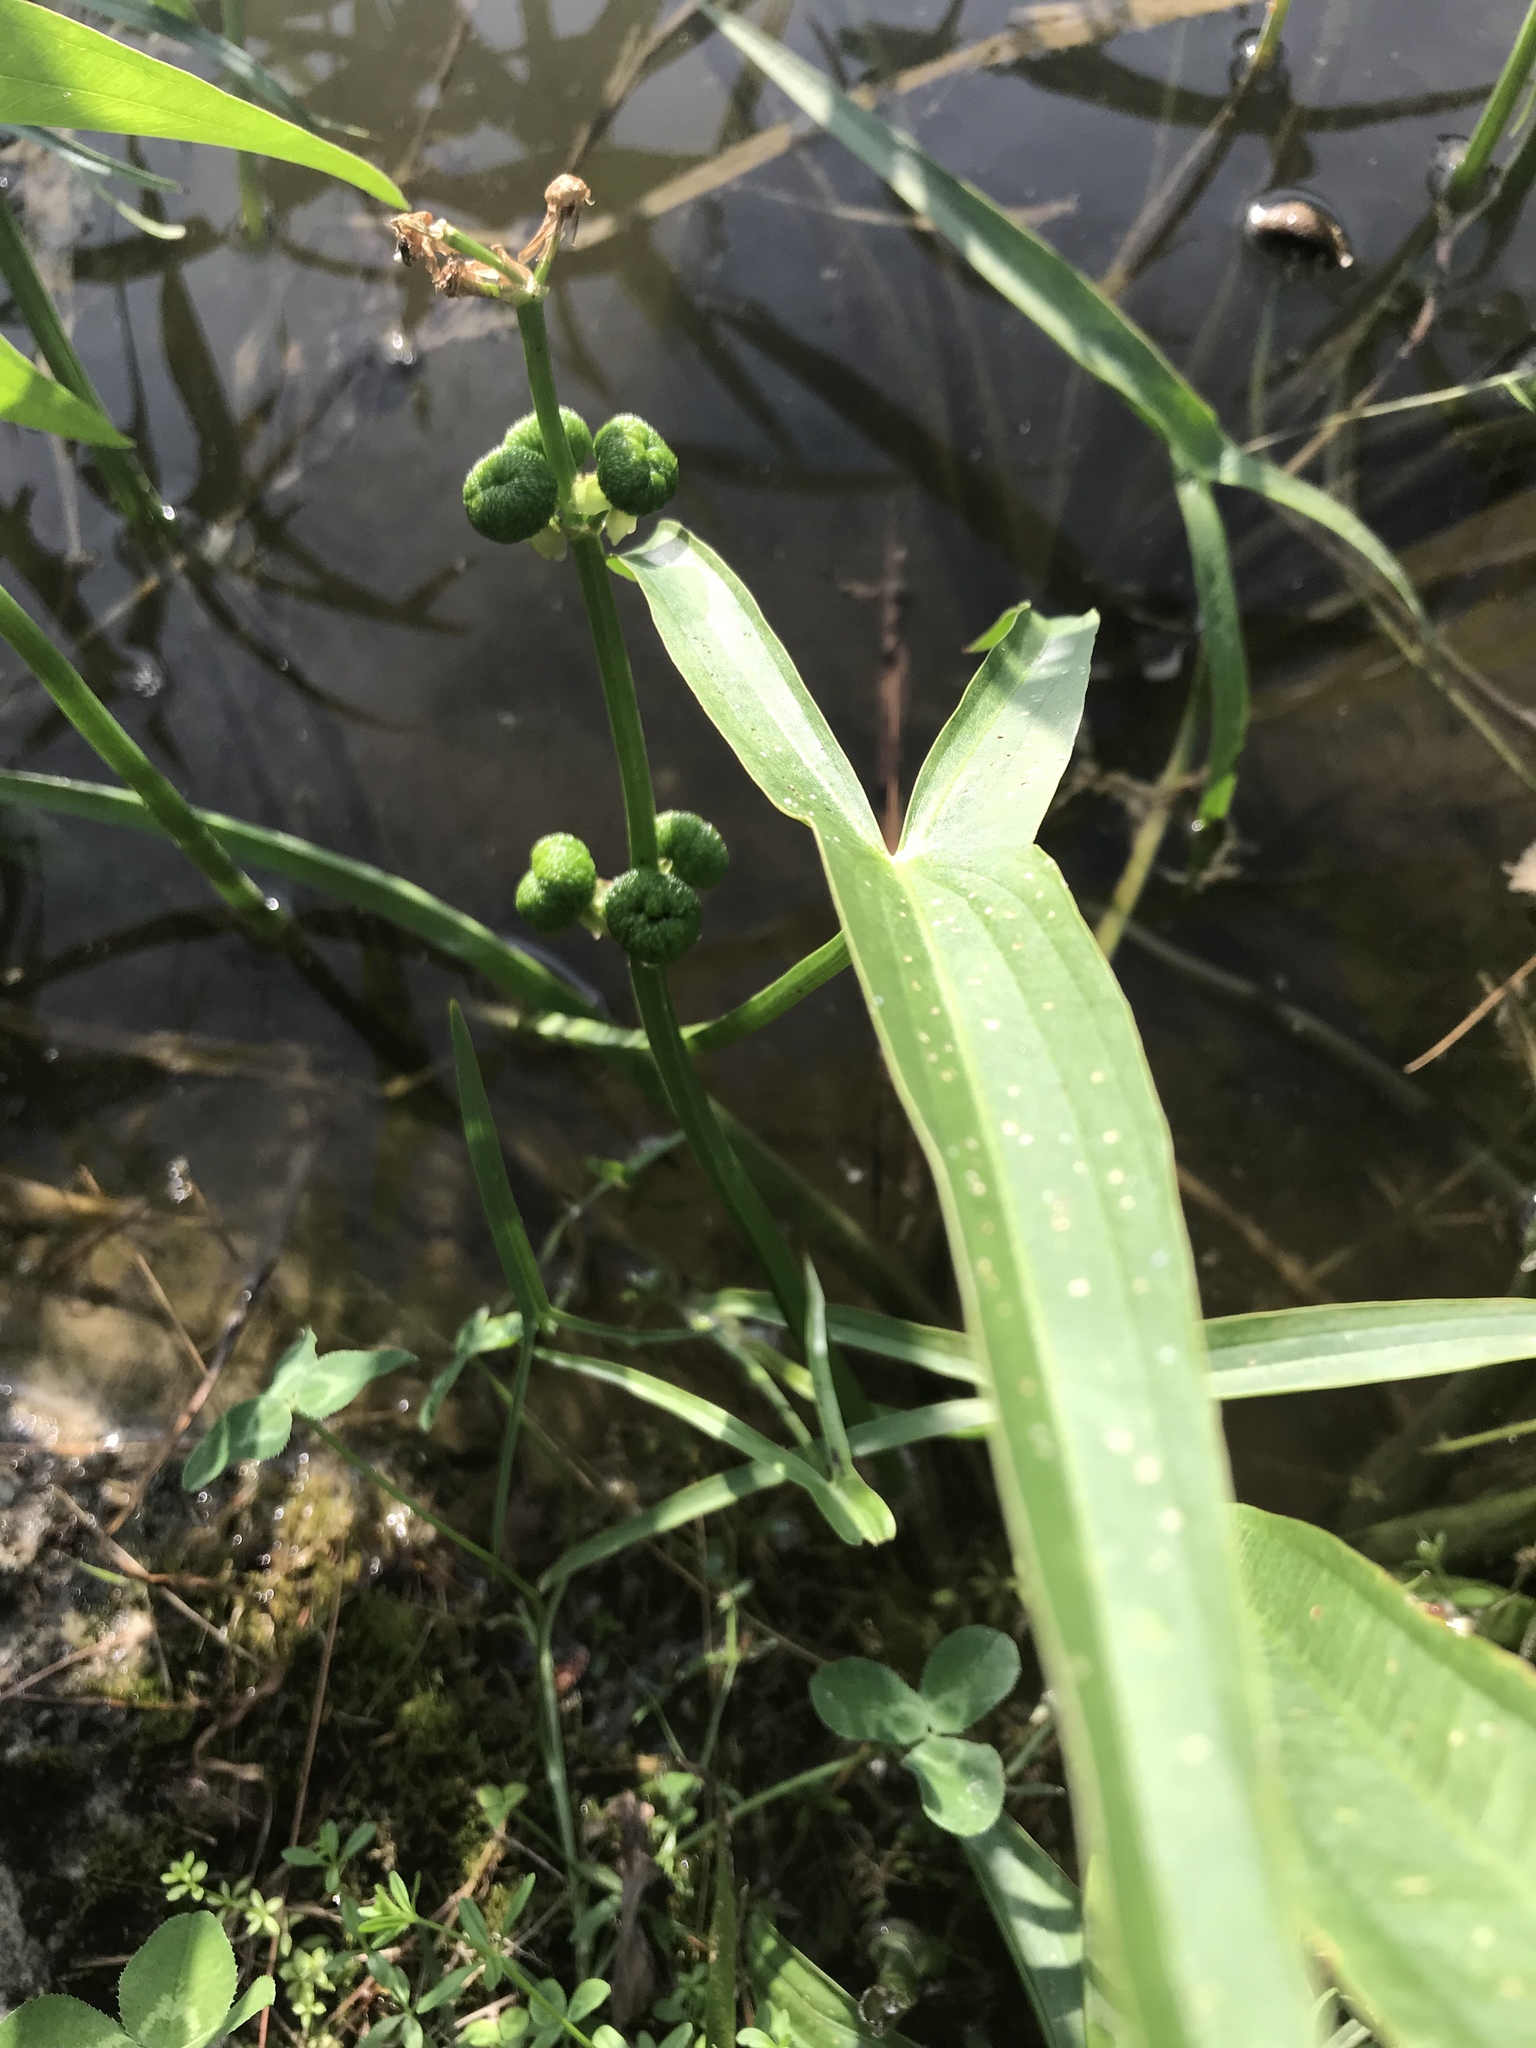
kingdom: Plantae
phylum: Tracheophyta
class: Liliopsida
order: Alismatales
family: Alismataceae
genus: Sagittaria
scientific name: Sagittaria latifolia
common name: Duck-potato
